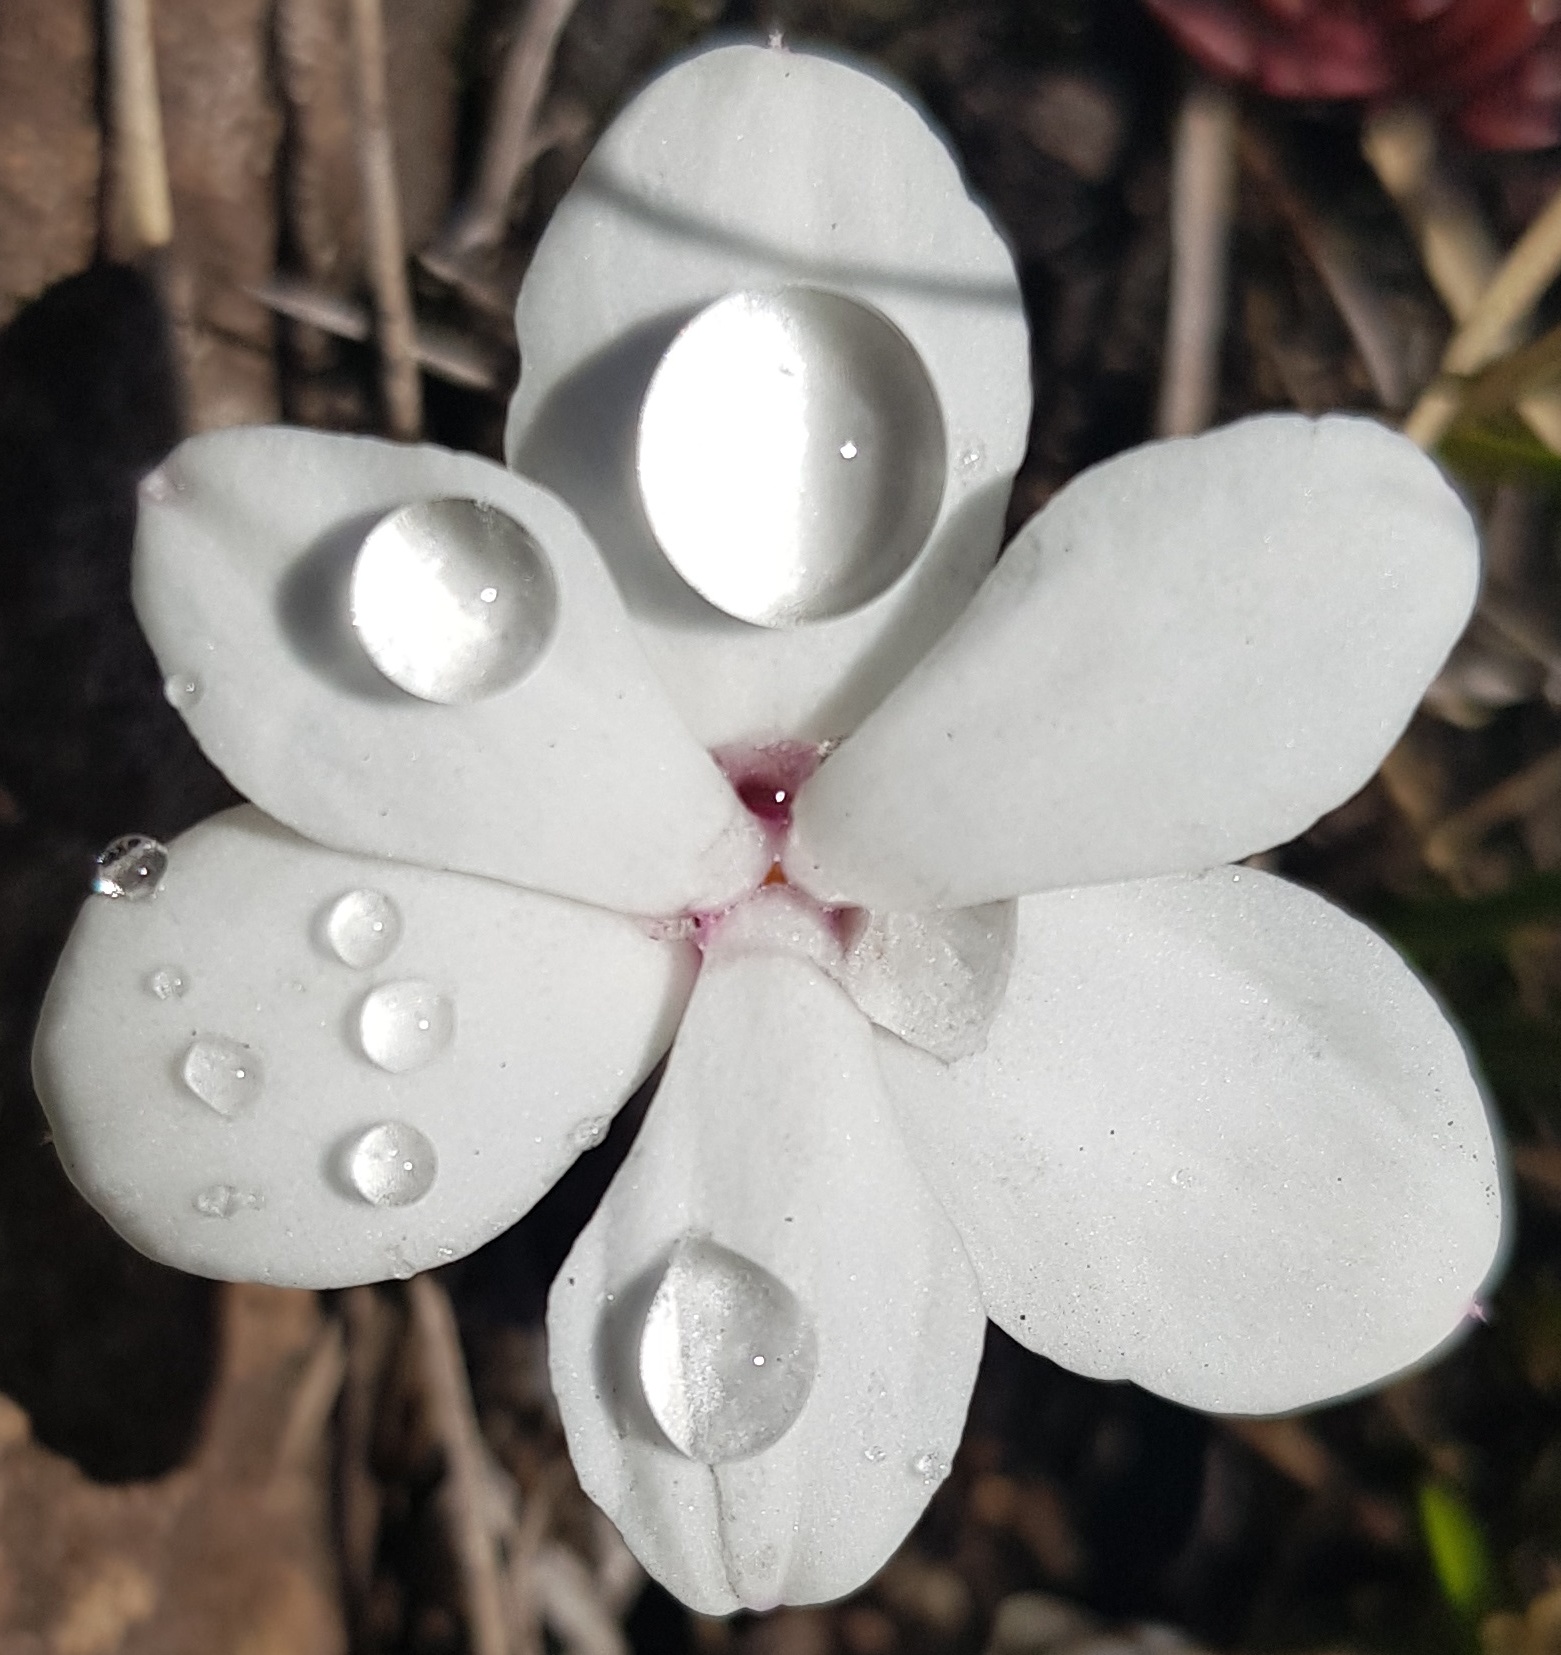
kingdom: Plantae
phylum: Tracheophyta
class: Liliopsida
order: Asparagales
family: Hypoxidaceae
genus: Hypoxis
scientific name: Hypoxis baurii
